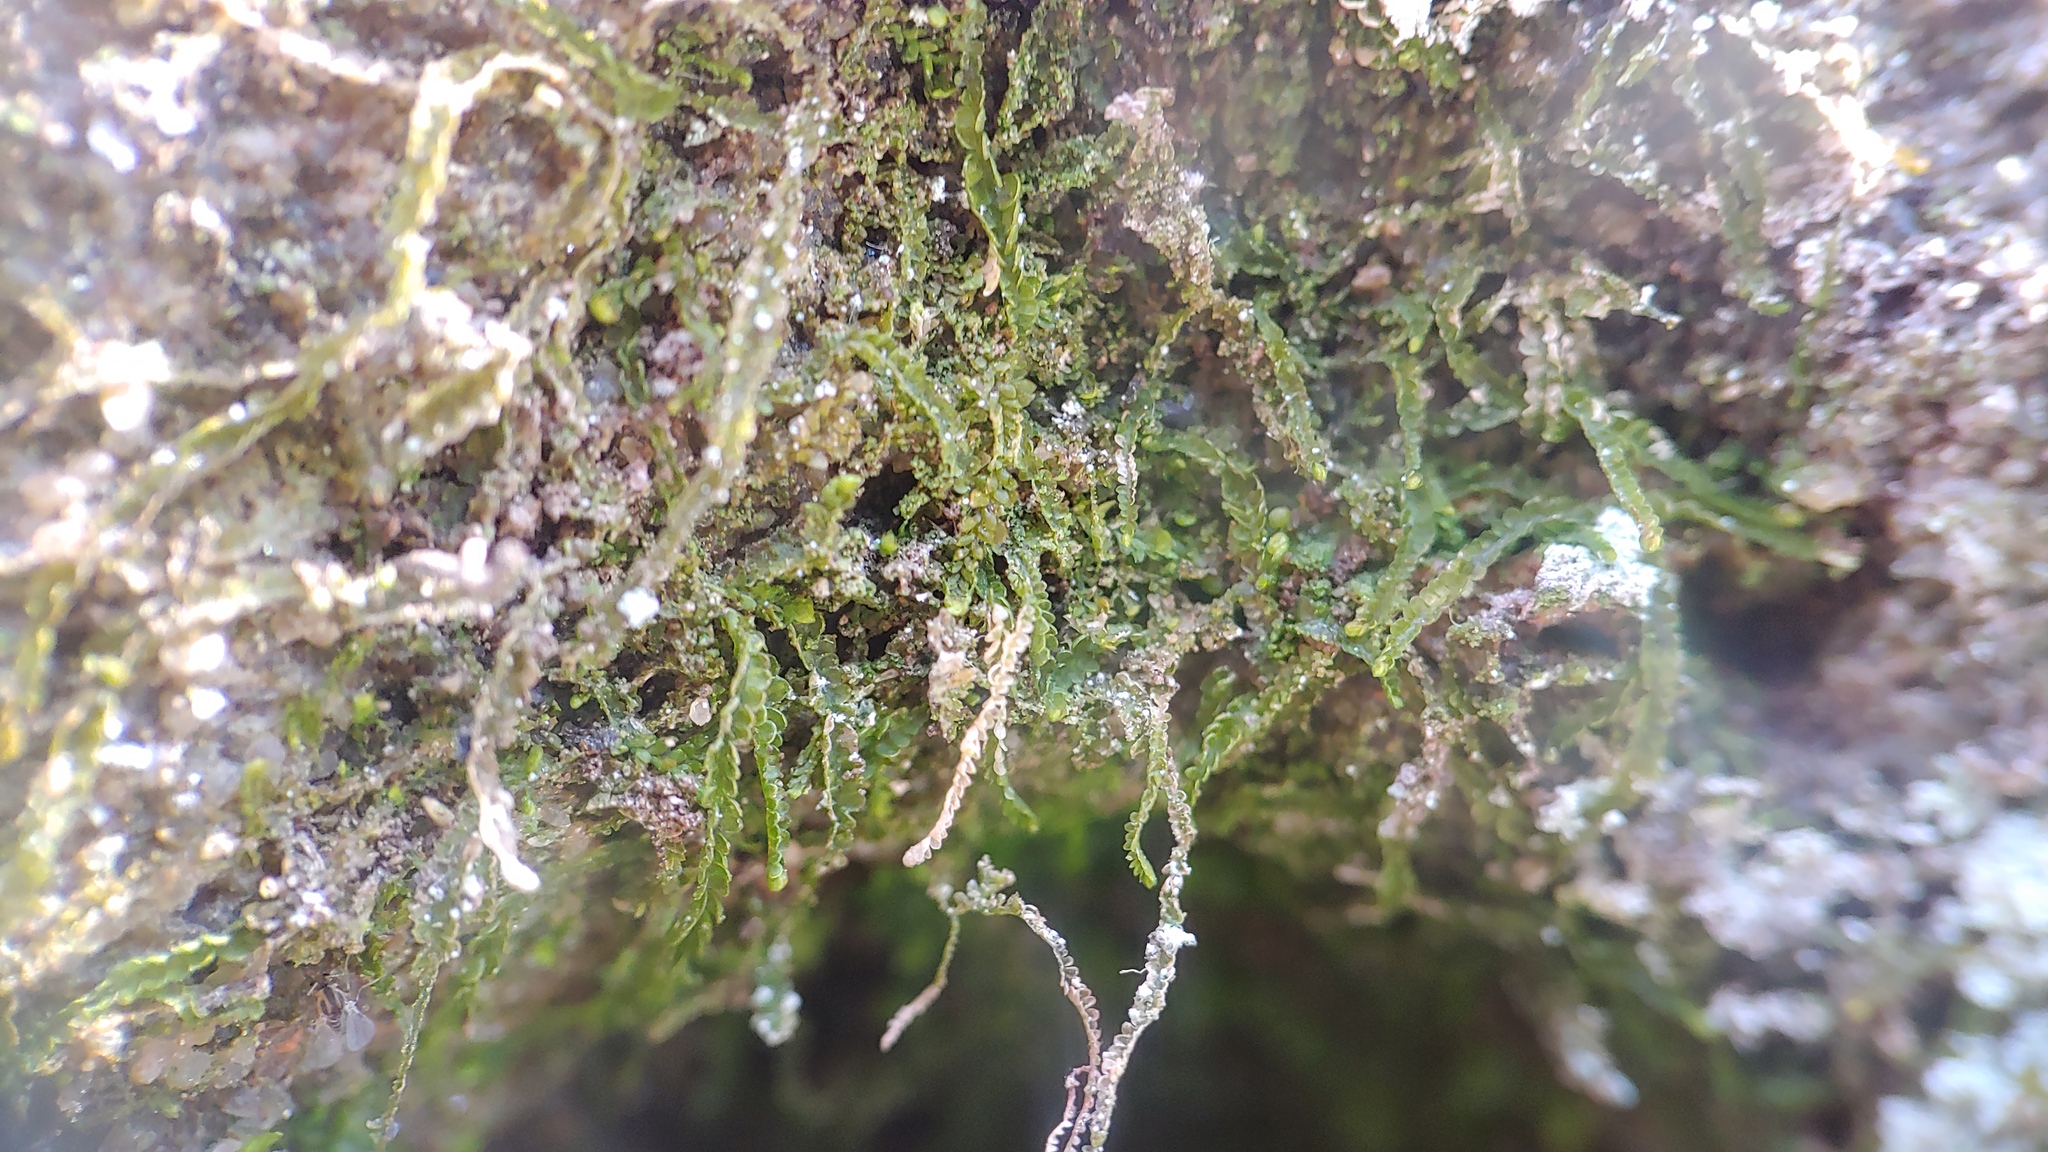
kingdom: Plantae
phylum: Marchantiophyta
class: Jungermanniopsida
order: Jungermanniales
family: Cephaloziaceae
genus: Odontoschisma
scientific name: Odontoschisma denudatum
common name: Matchstick flapwort
